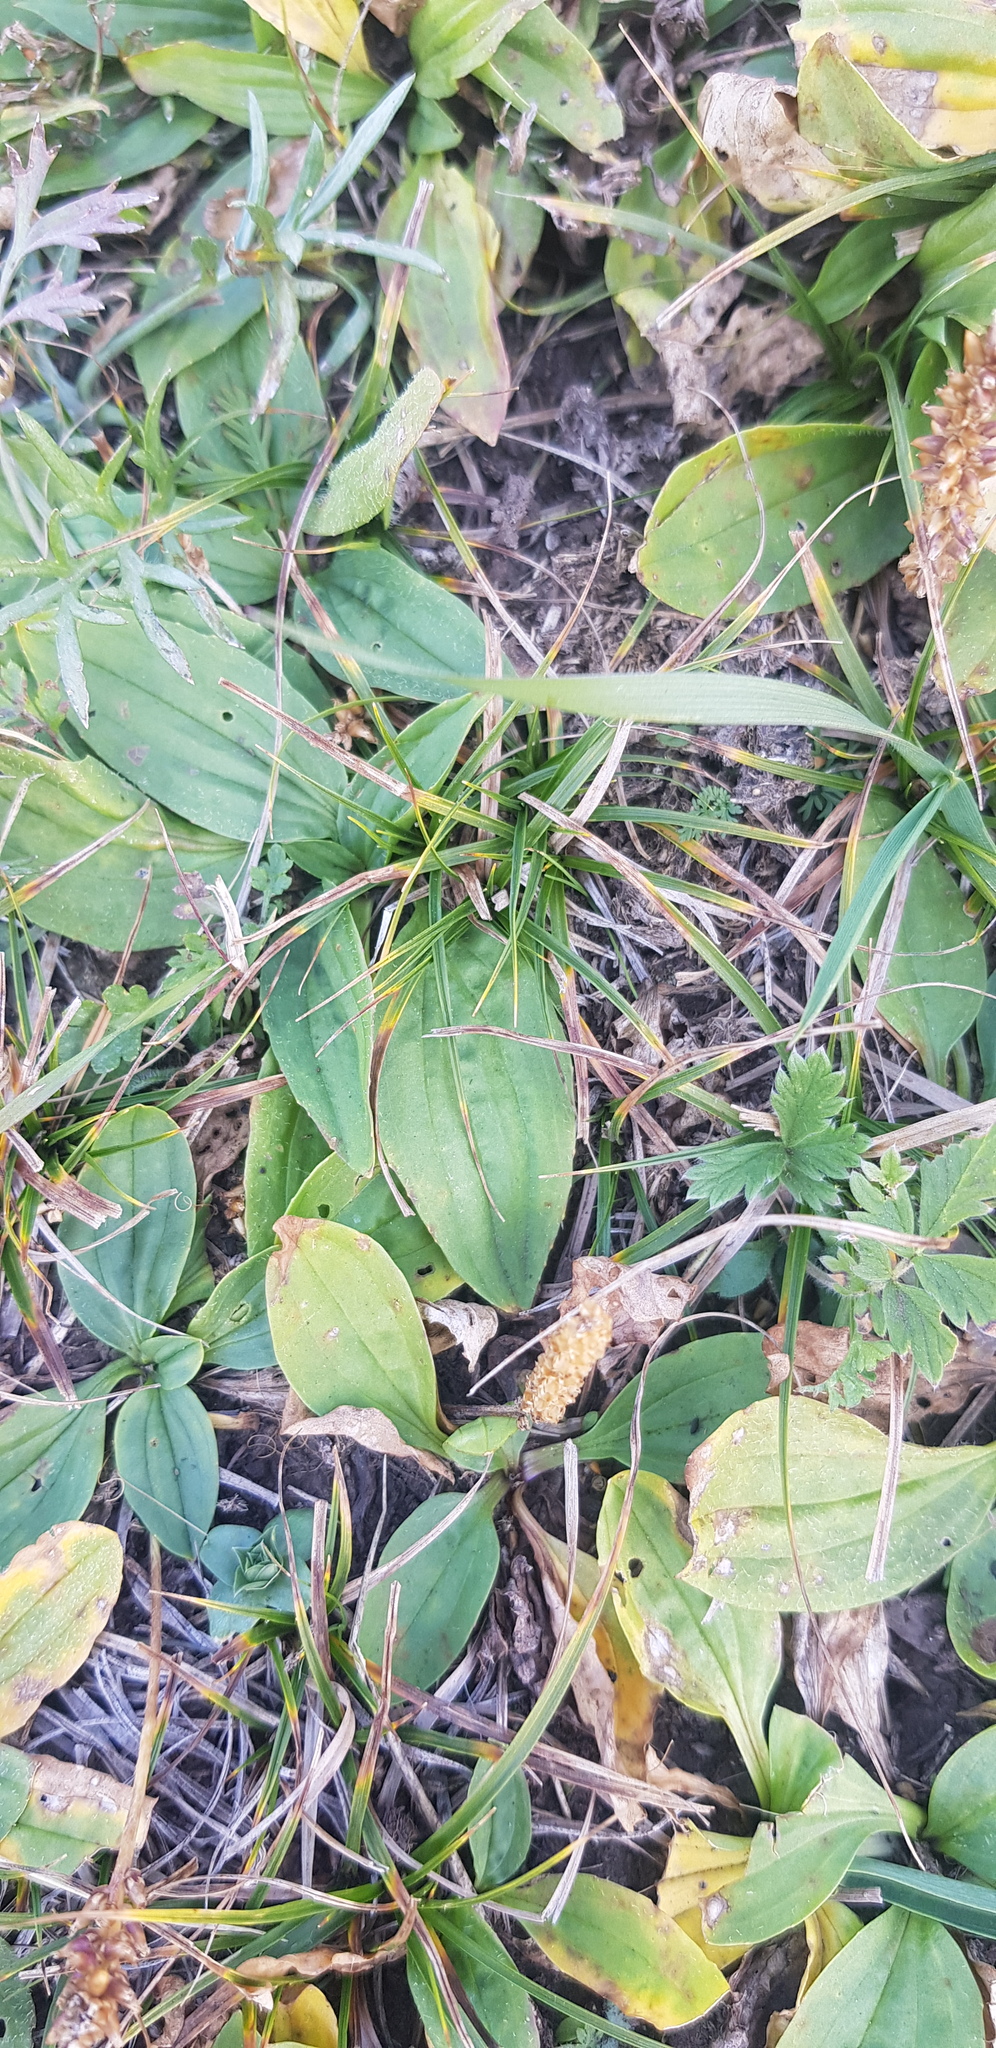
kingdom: Plantae
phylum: Tracheophyta
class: Magnoliopsida
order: Lamiales
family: Plantaginaceae
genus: Plantago
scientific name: Plantago media
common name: Hoary plantain
